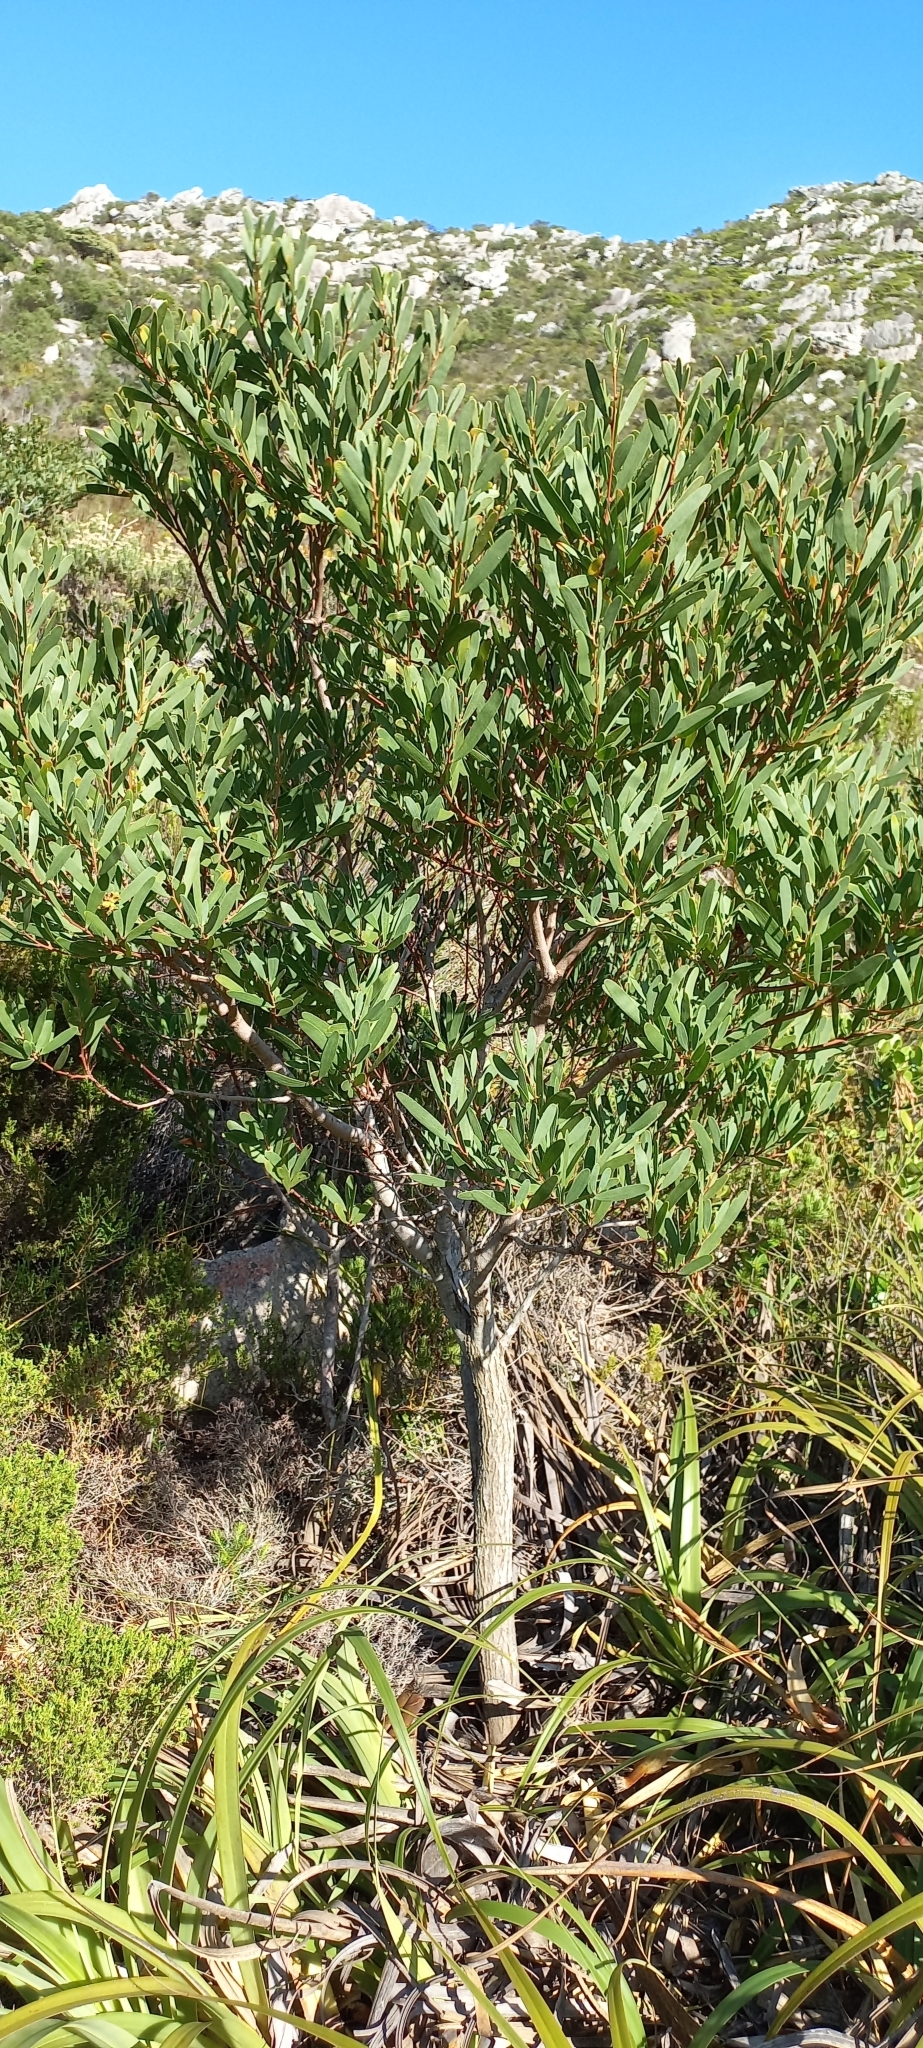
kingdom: Plantae
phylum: Tracheophyta
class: Magnoliopsida
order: Fabales
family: Fabaceae
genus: Acacia
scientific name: Acacia cyclops
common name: Coastal wattle
